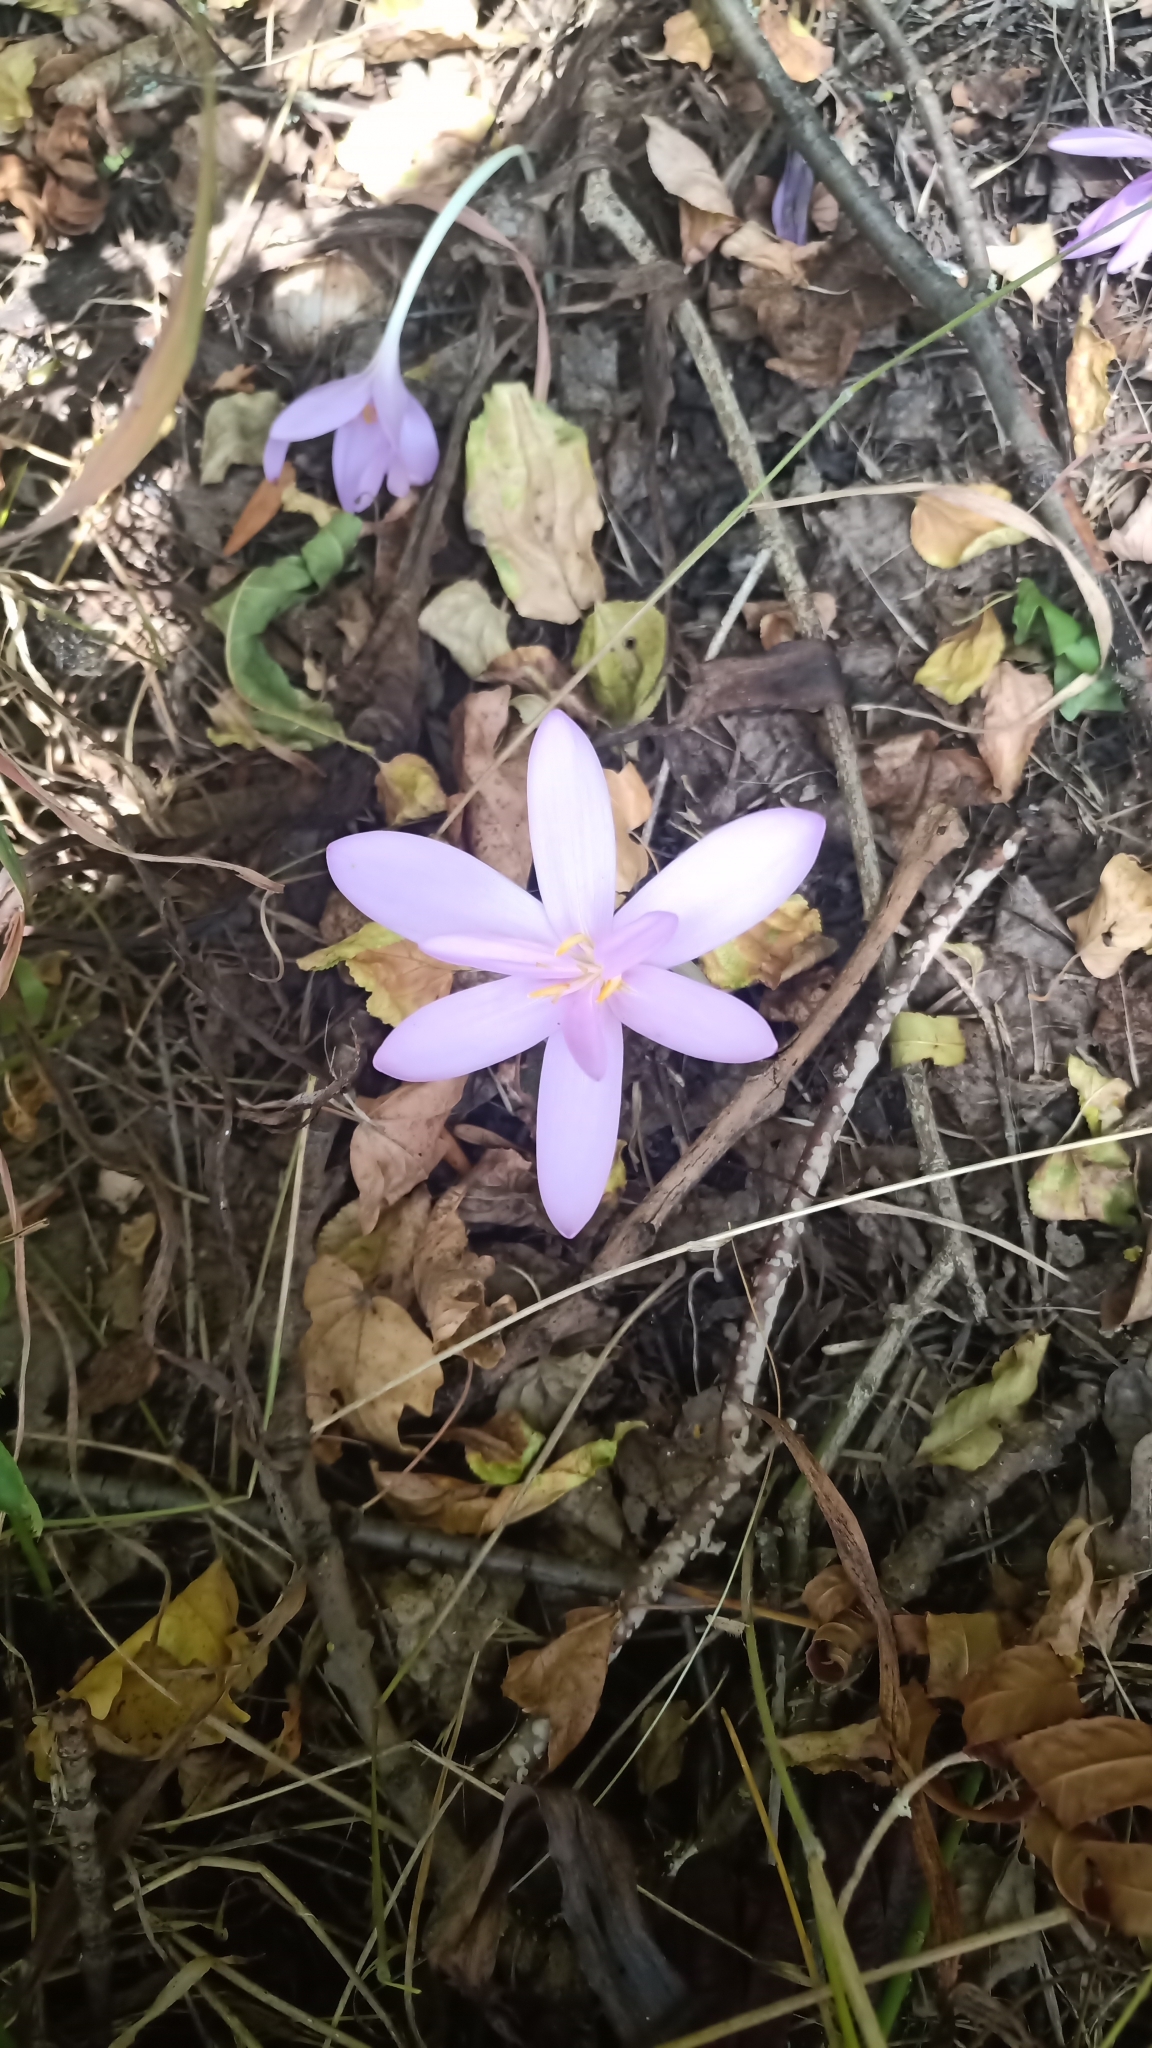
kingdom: Plantae
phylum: Tracheophyta
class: Liliopsida
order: Liliales
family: Colchicaceae
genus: Colchicum
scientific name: Colchicum autumnale
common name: Autumn crocus
